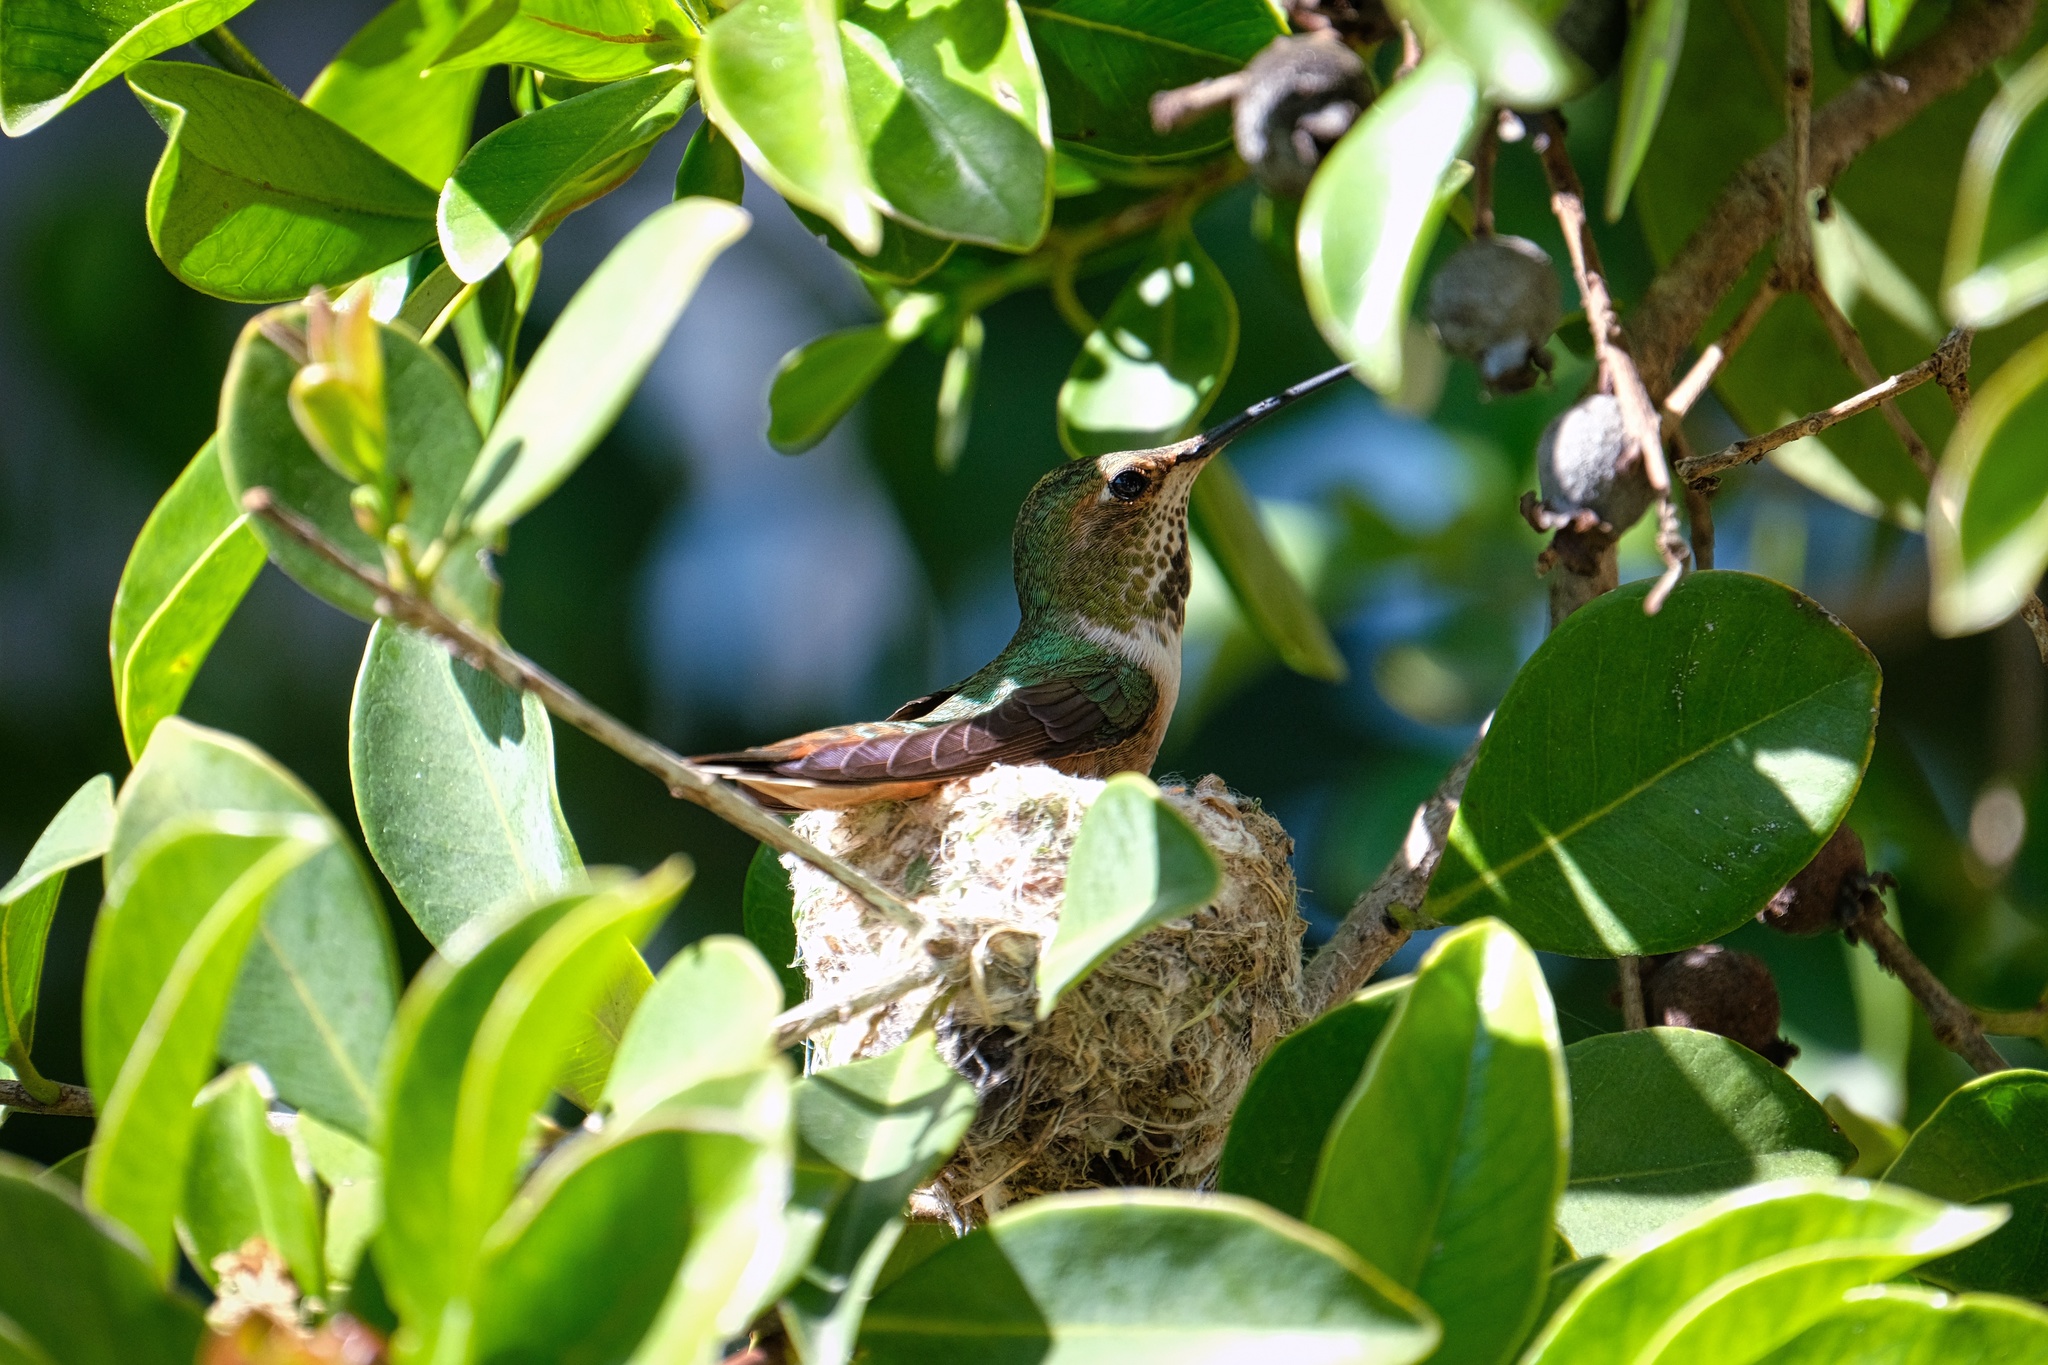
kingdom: Animalia
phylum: Chordata
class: Aves
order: Apodiformes
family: Trochilidae
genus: Selasphorus
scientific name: Selasphorus sasin
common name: Allen's hummingbird
